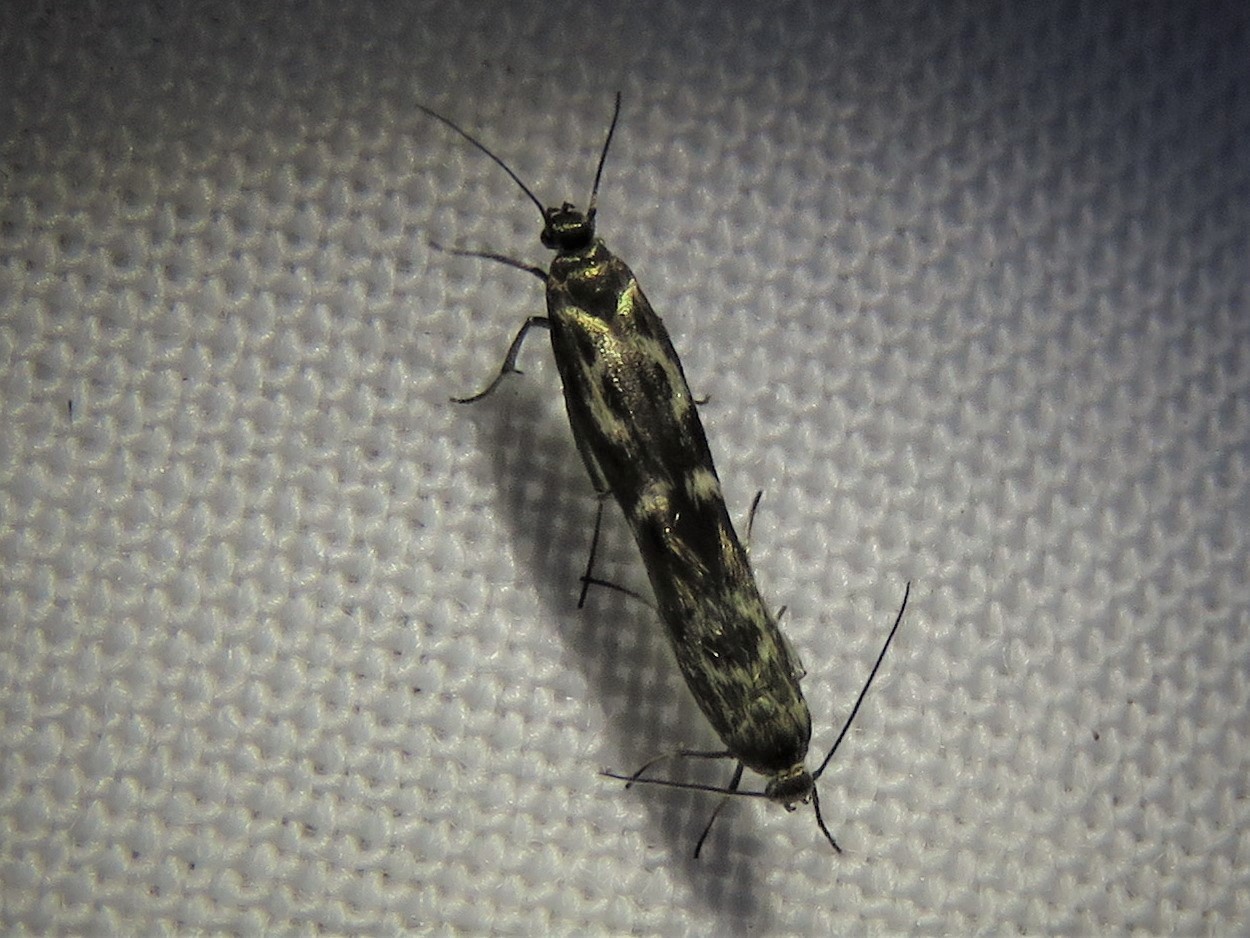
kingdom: Animalia
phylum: Arthropoda
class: Insecta
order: Lepidoptera
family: Scythrididae
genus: Scythris
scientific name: Scythris trivinctella
